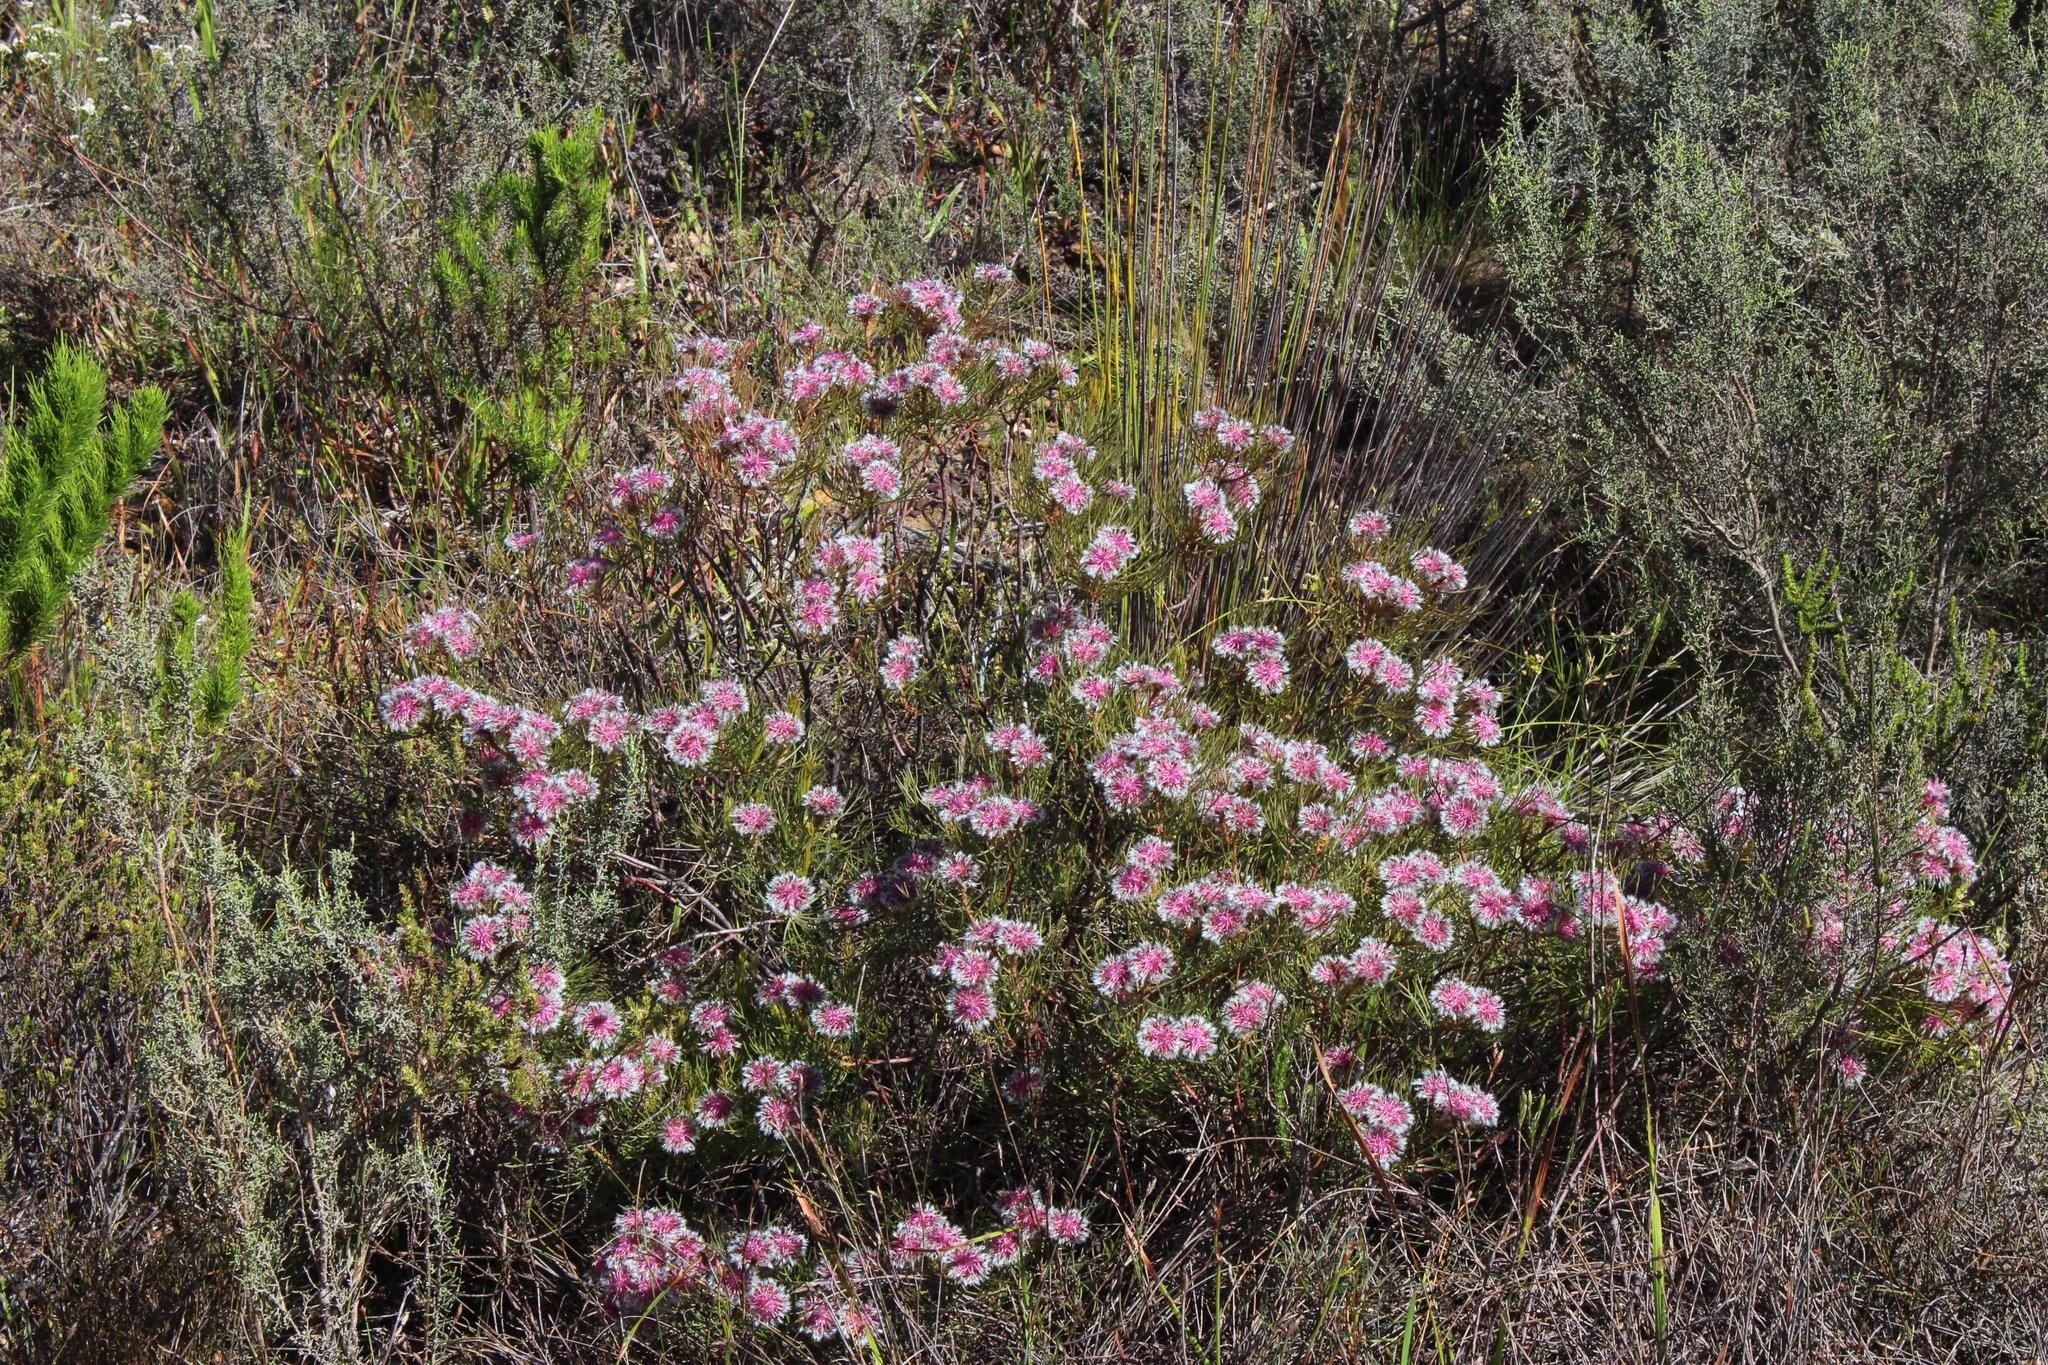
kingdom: Plantae
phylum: Tracheophyta
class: Magnoliopsida
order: Proteales
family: Proteaceae
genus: Serruria
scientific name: Serruria phylicoides
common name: Bearded spiderhead
